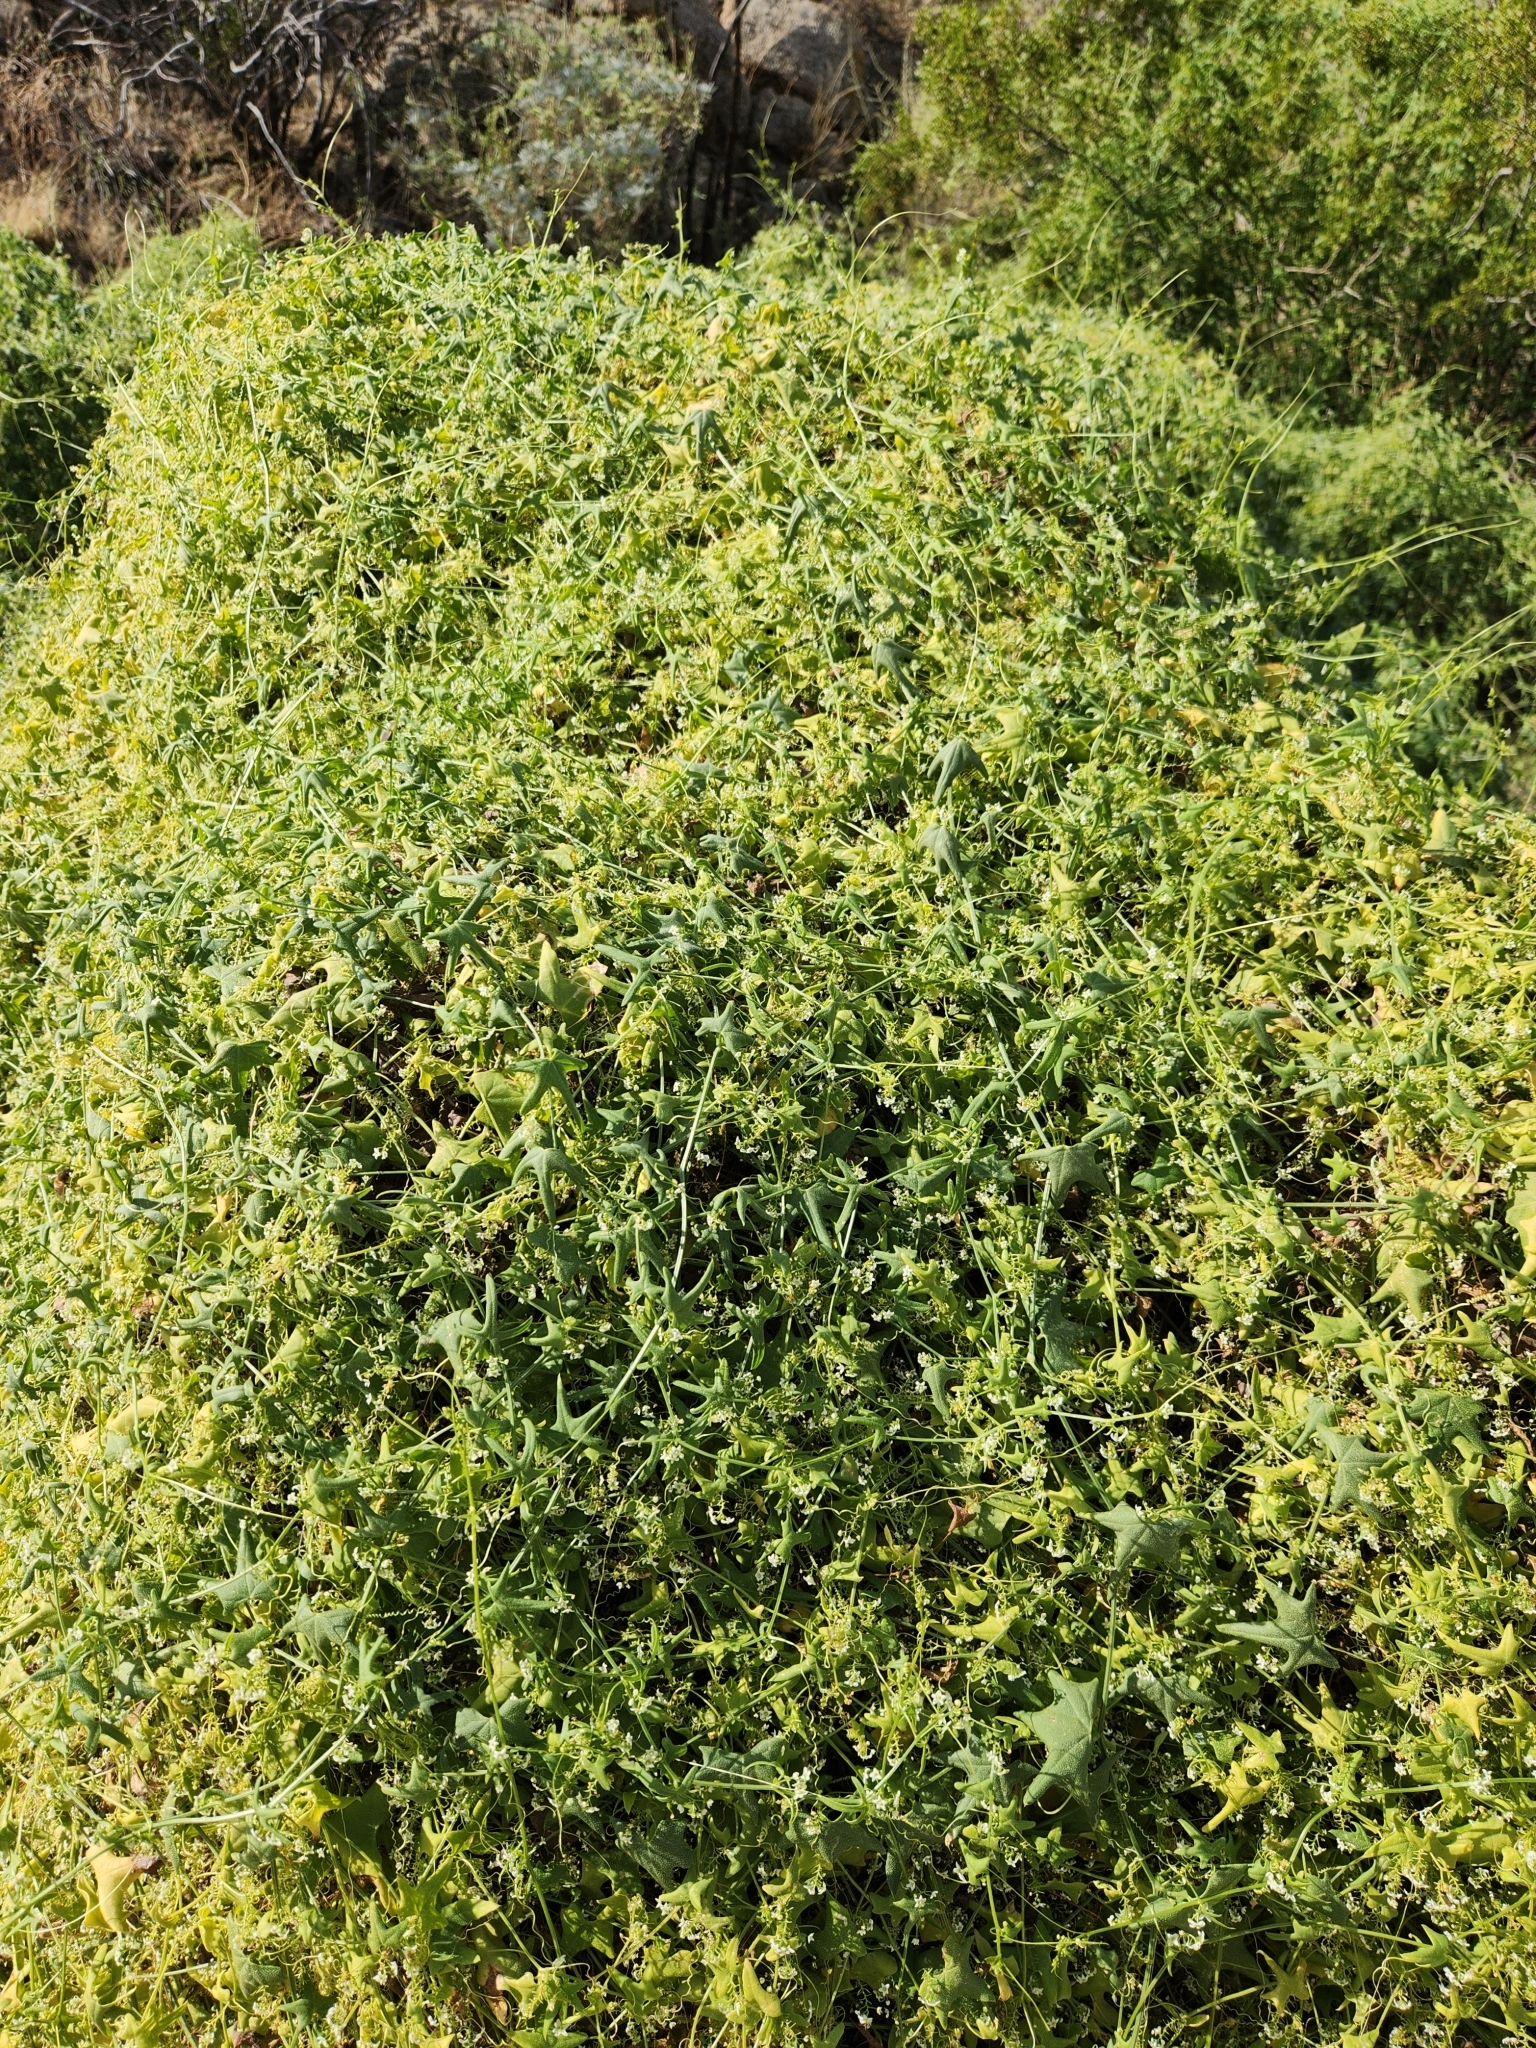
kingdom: Plantae
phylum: Tracheophyta
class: Magnoliopsida
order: Cucurbitales
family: Cucurbitaceae
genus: Echinopepon
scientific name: Echinopepon bigelovii
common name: Desert starvine
